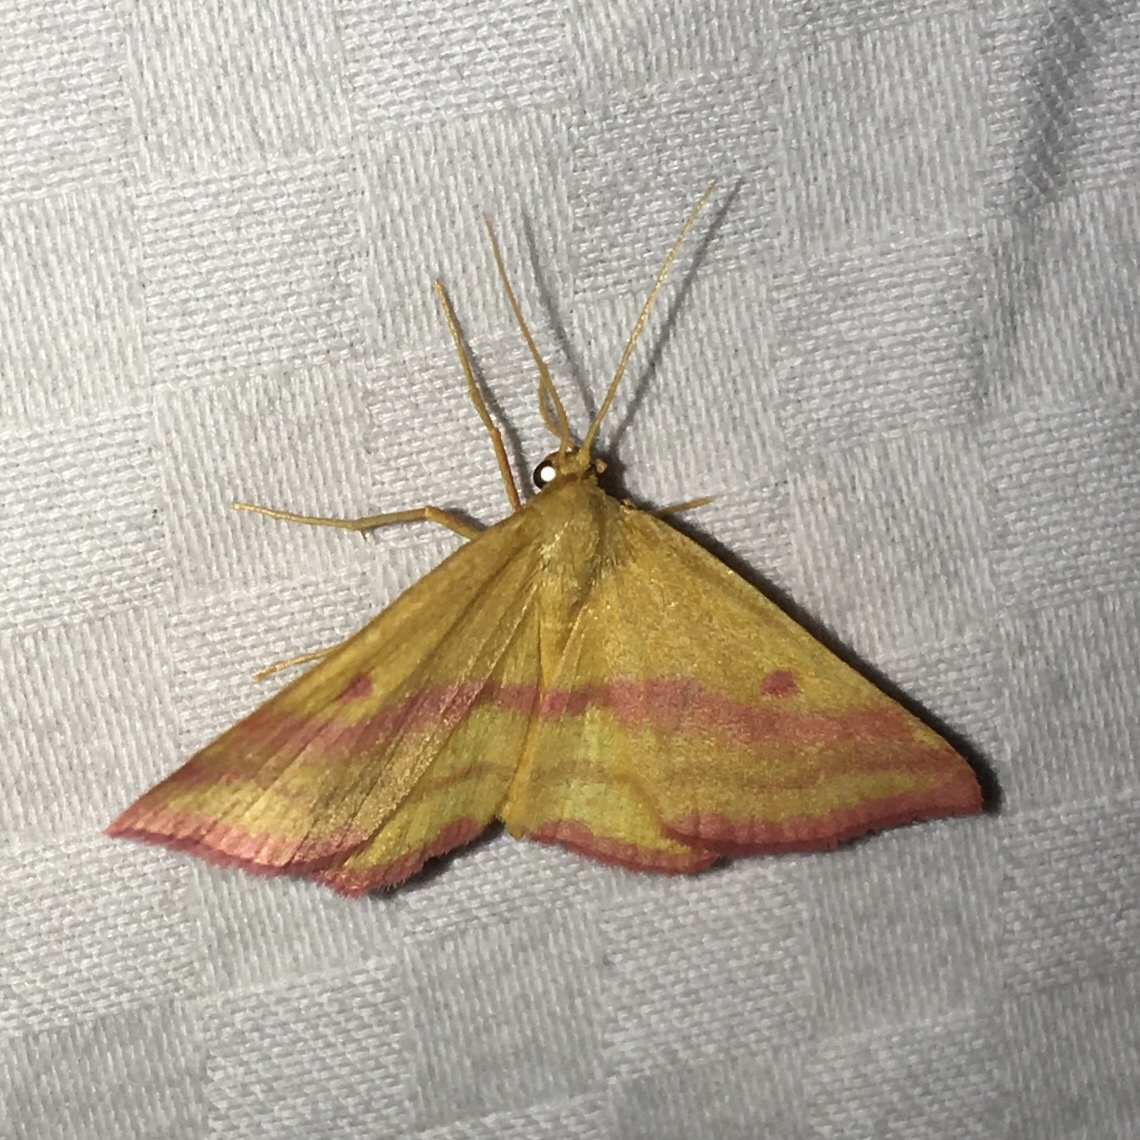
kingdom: Animalia
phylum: Arthropoda
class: Insecta
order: Lepidoptera
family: Geometridae
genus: Haematopis
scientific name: Haematopis grataria
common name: Chickweed geometer
